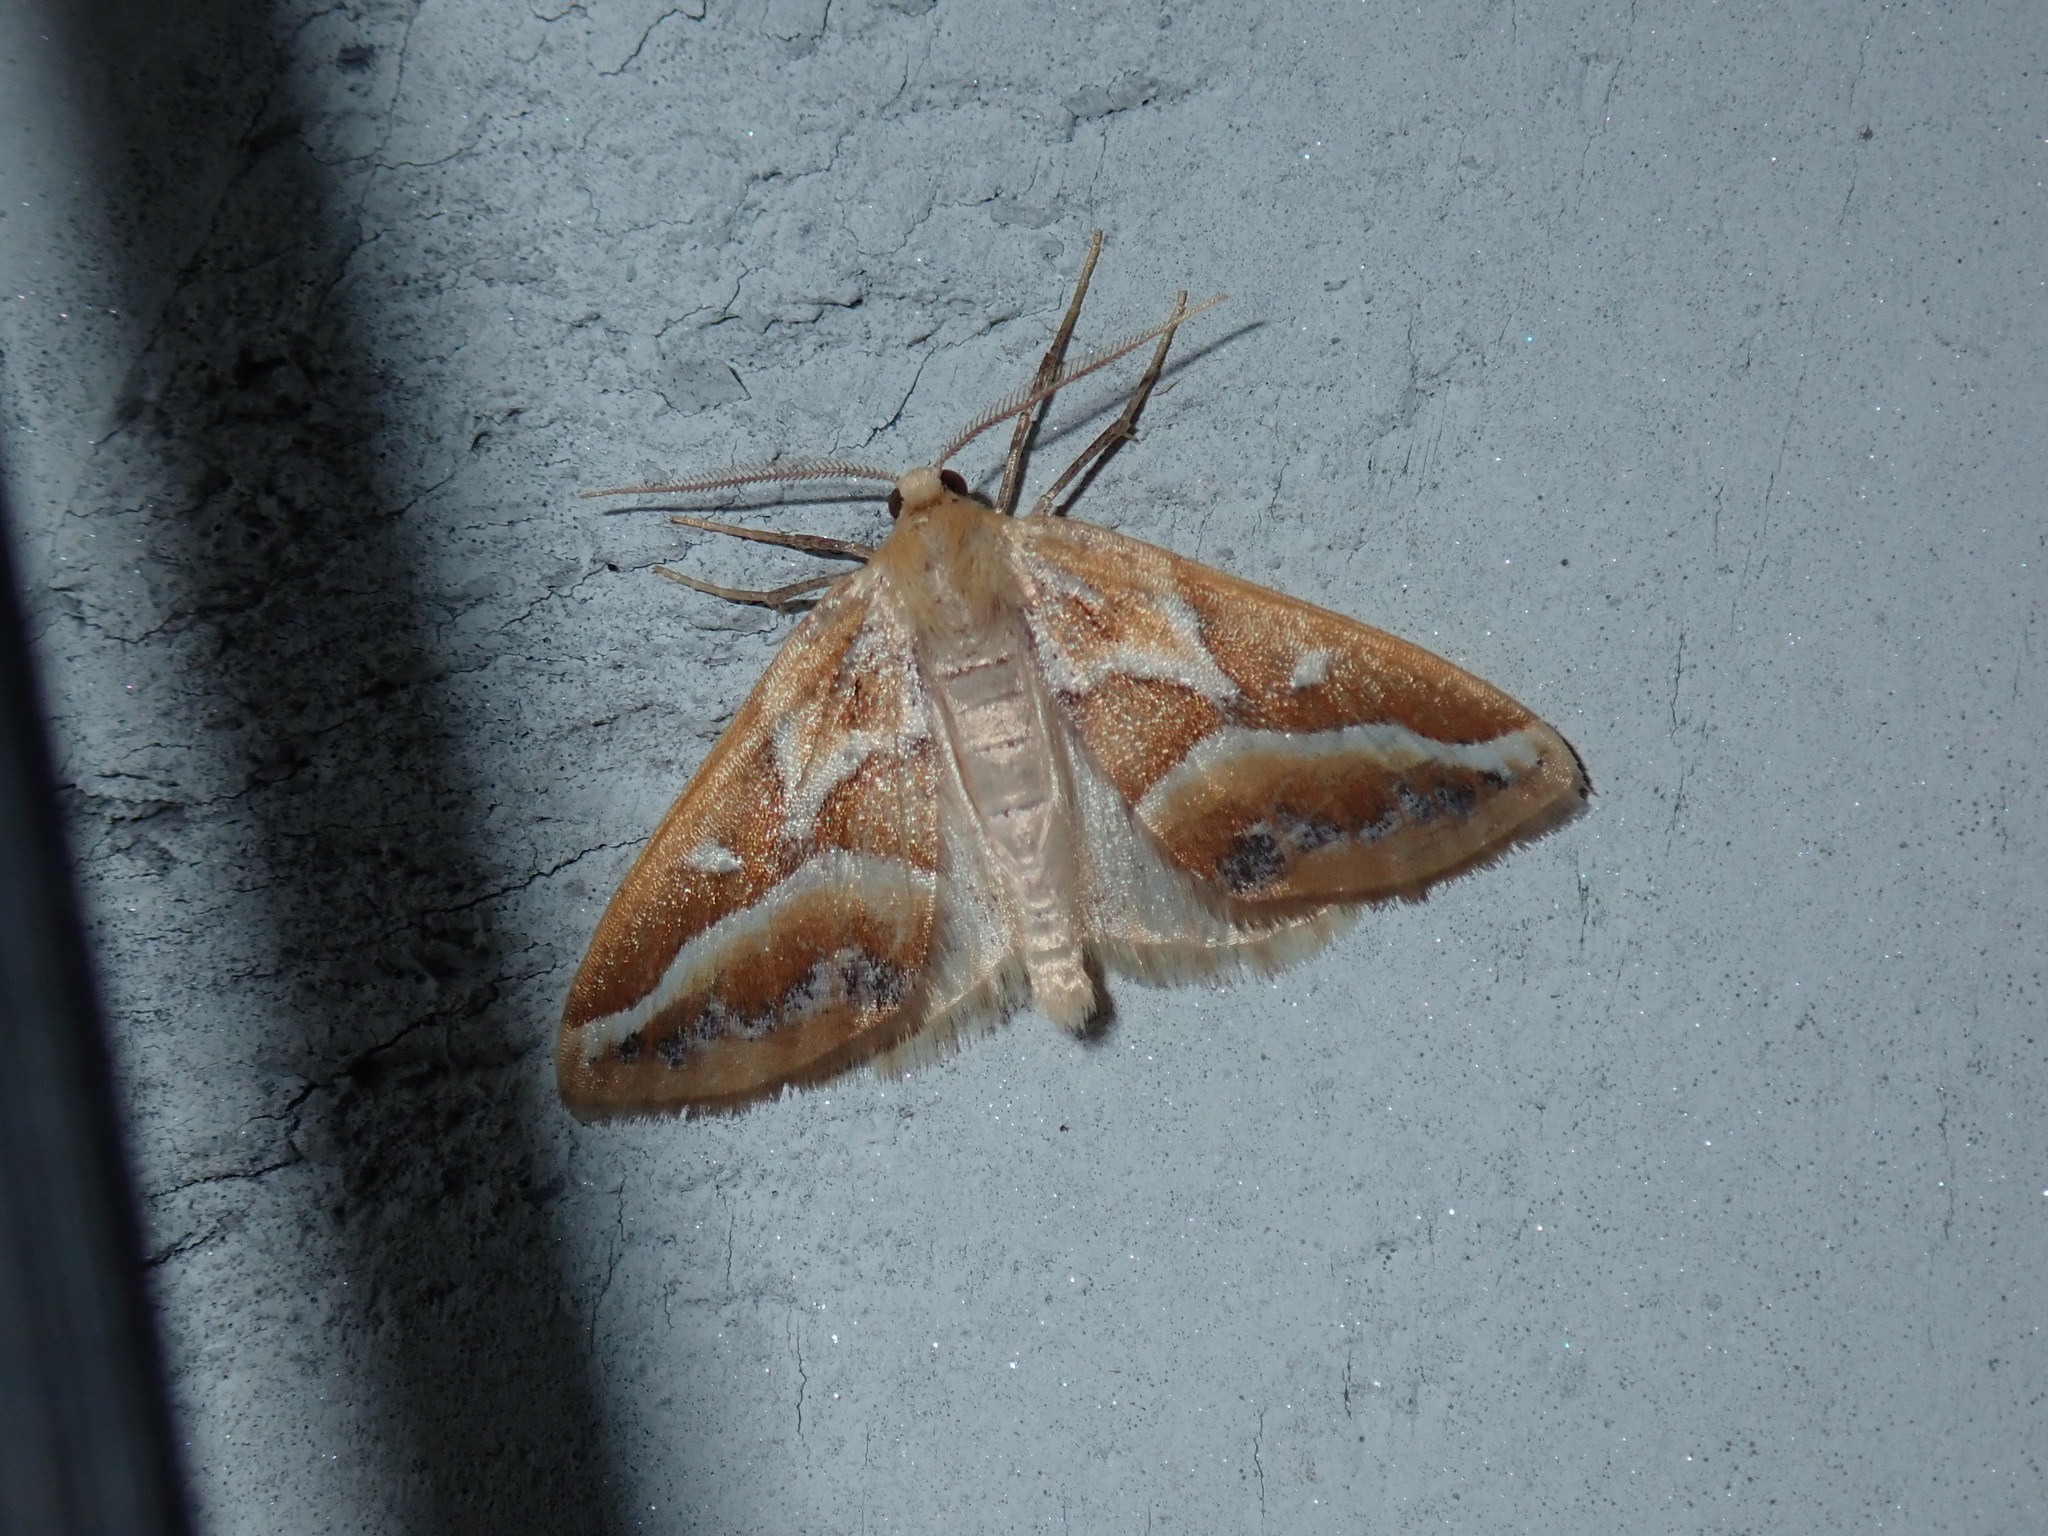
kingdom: Animalia
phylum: Arthropoda
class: Insecta
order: Lepidoptera
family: Geometridae
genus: Caripeta
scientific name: Caripeta angustiorata
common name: Brown pine looper
